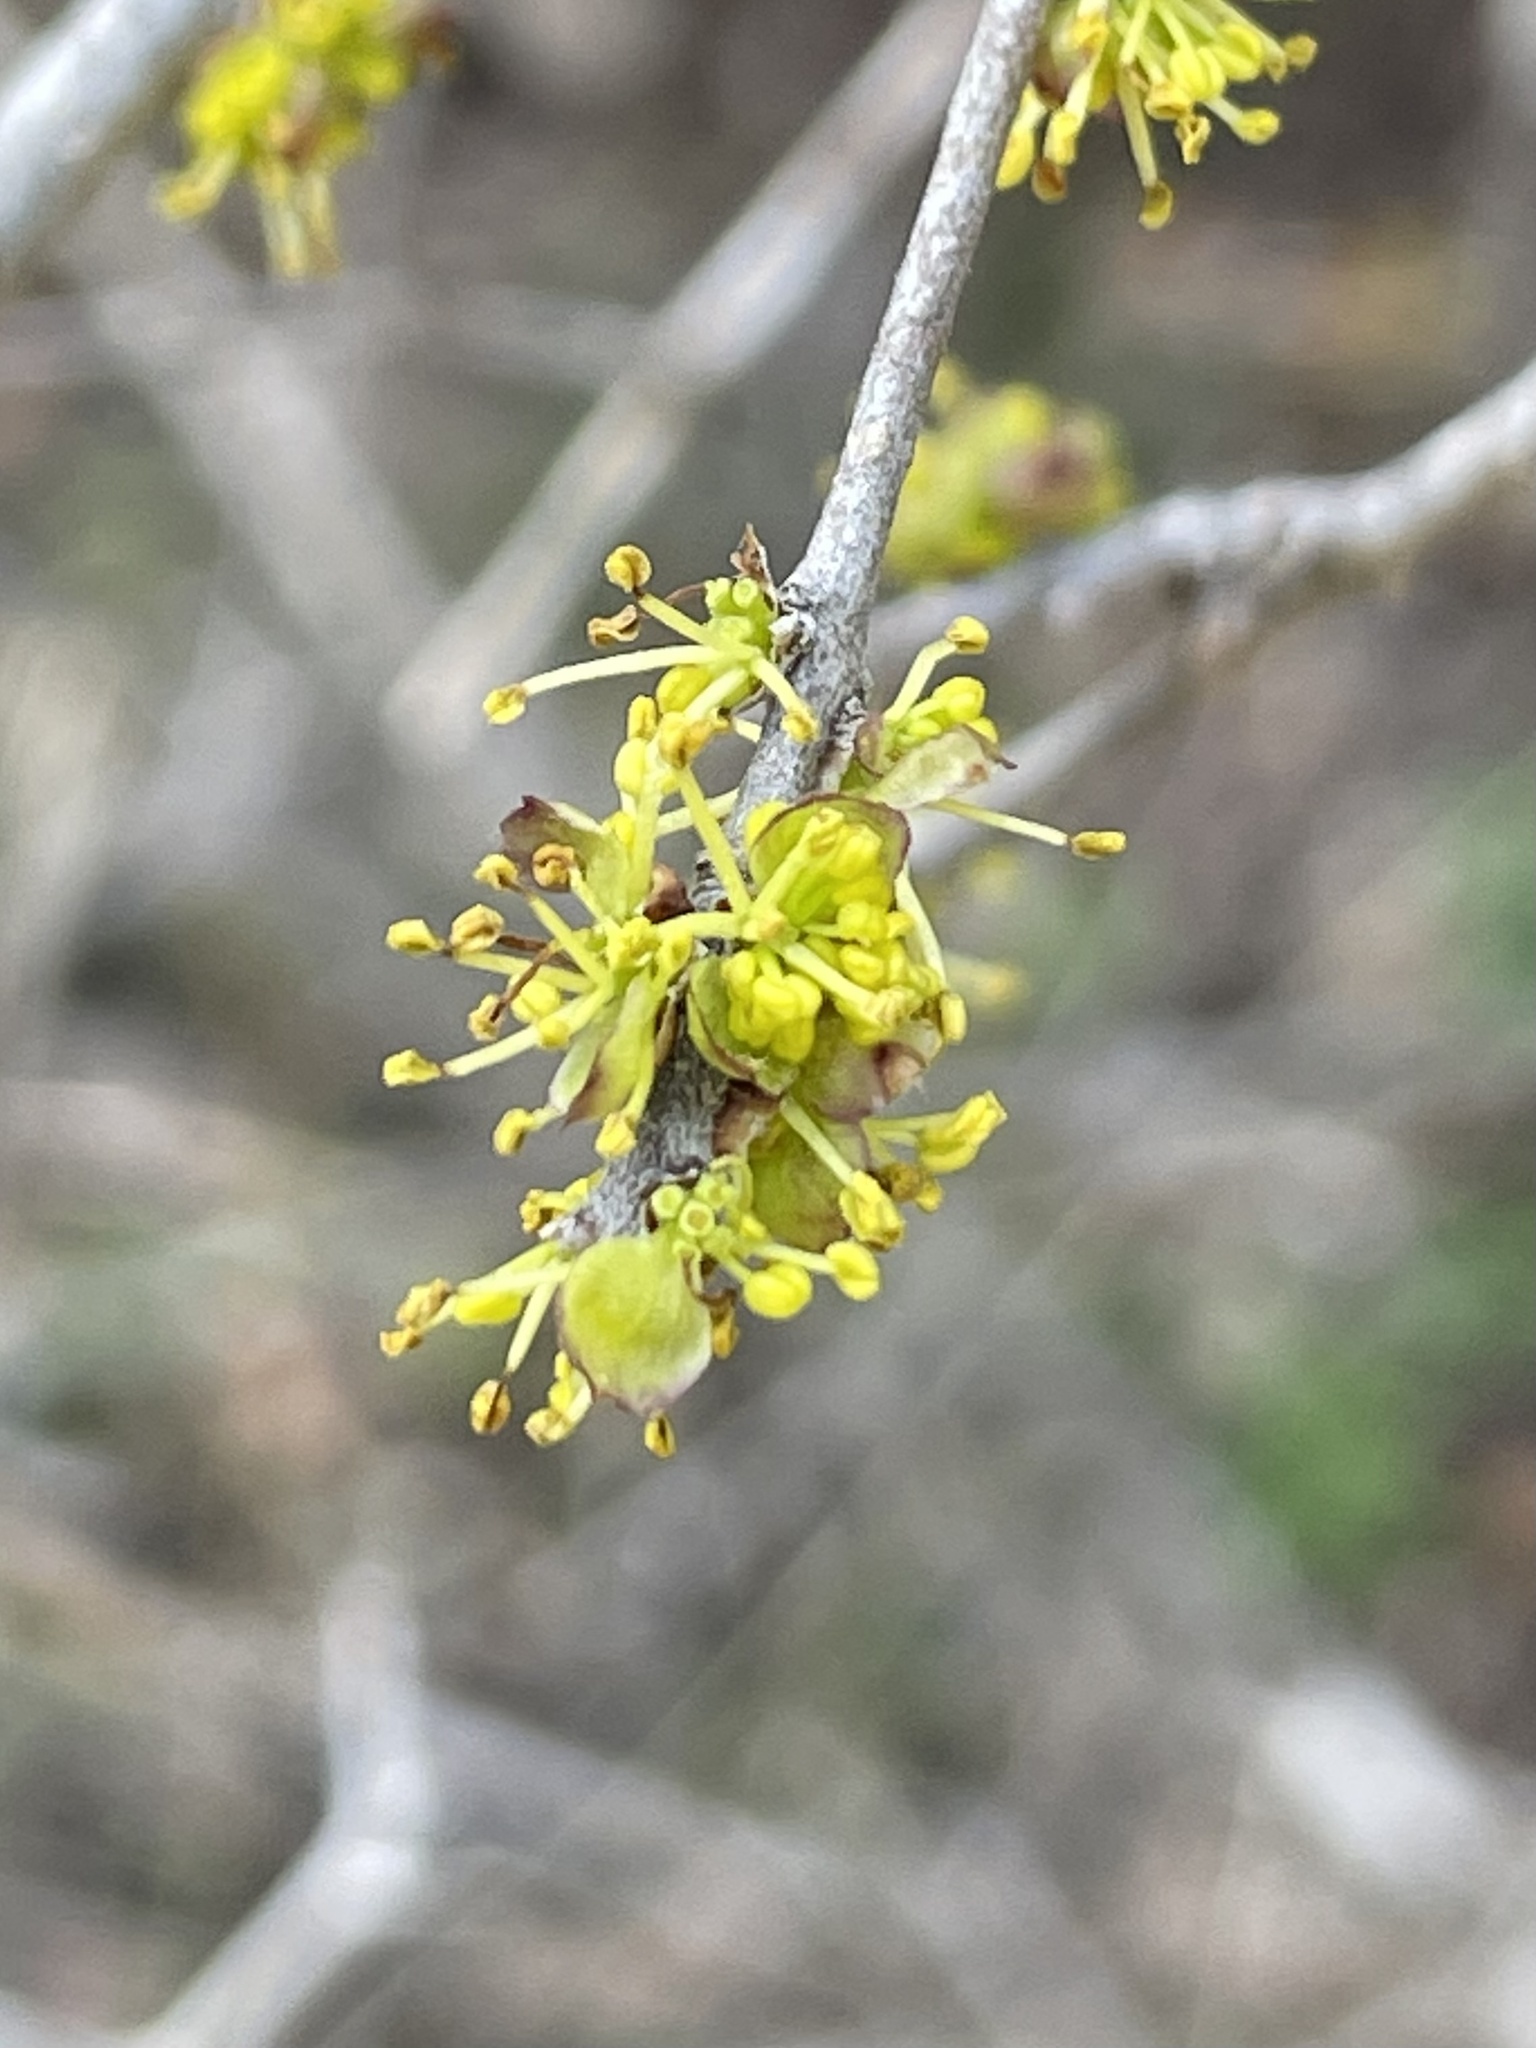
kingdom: Plantae
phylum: Tracheophyta
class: Magnoliopsida
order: Lamiales
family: Oleaceae
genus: Forestiera
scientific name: Forestiera pubescens
